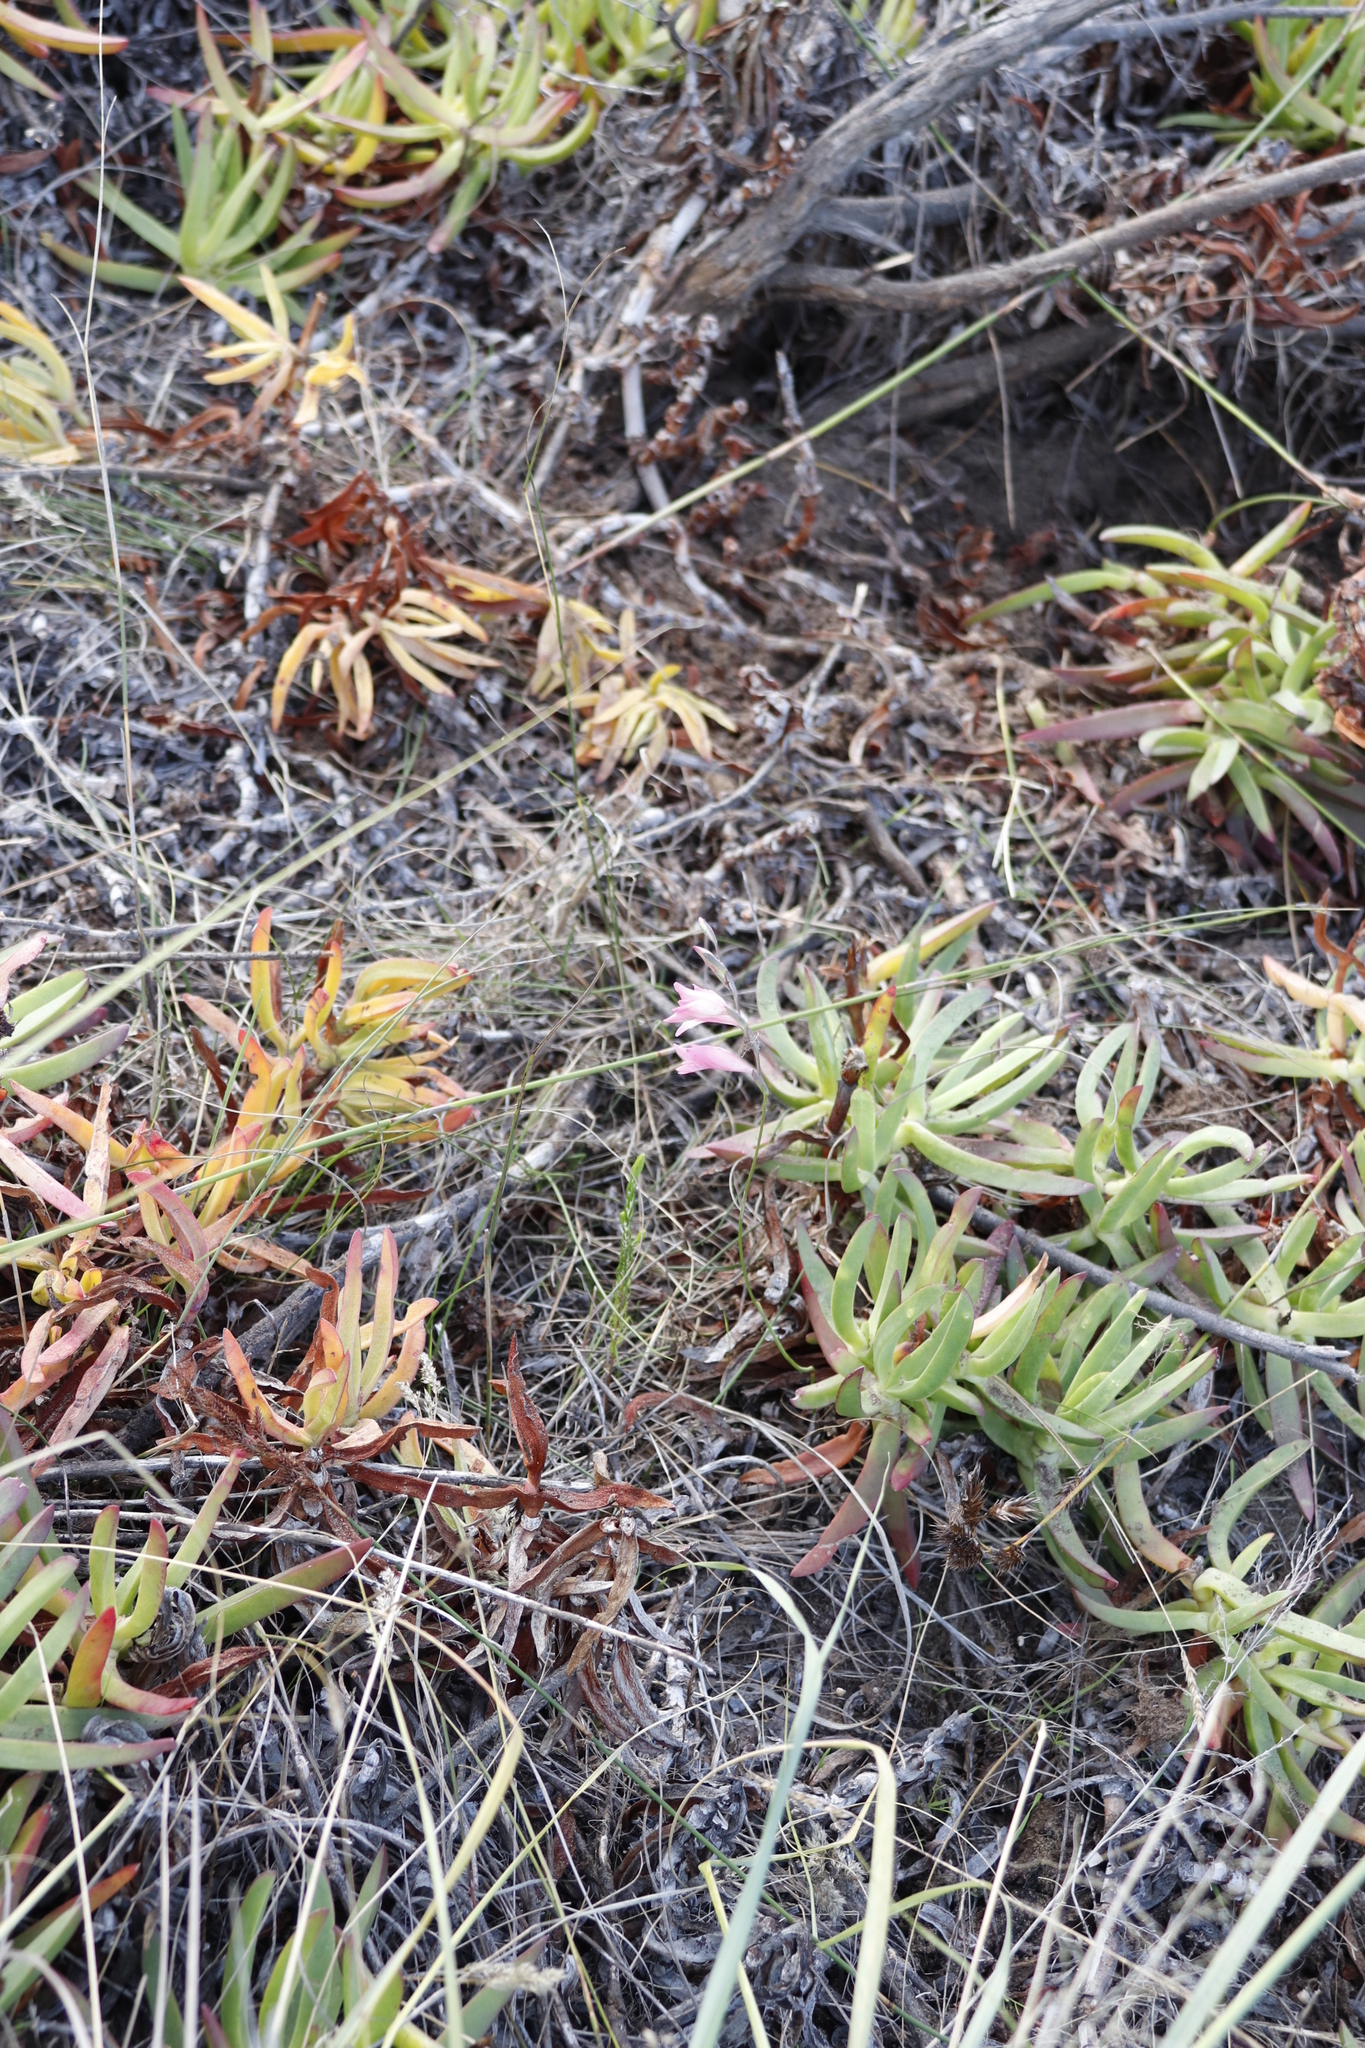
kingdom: Plantae
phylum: Tracheophyta
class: Liliopsida
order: Asparagales
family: Iridaceae
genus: Gladiolus
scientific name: Gladiolus brevifolius
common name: March pypie
